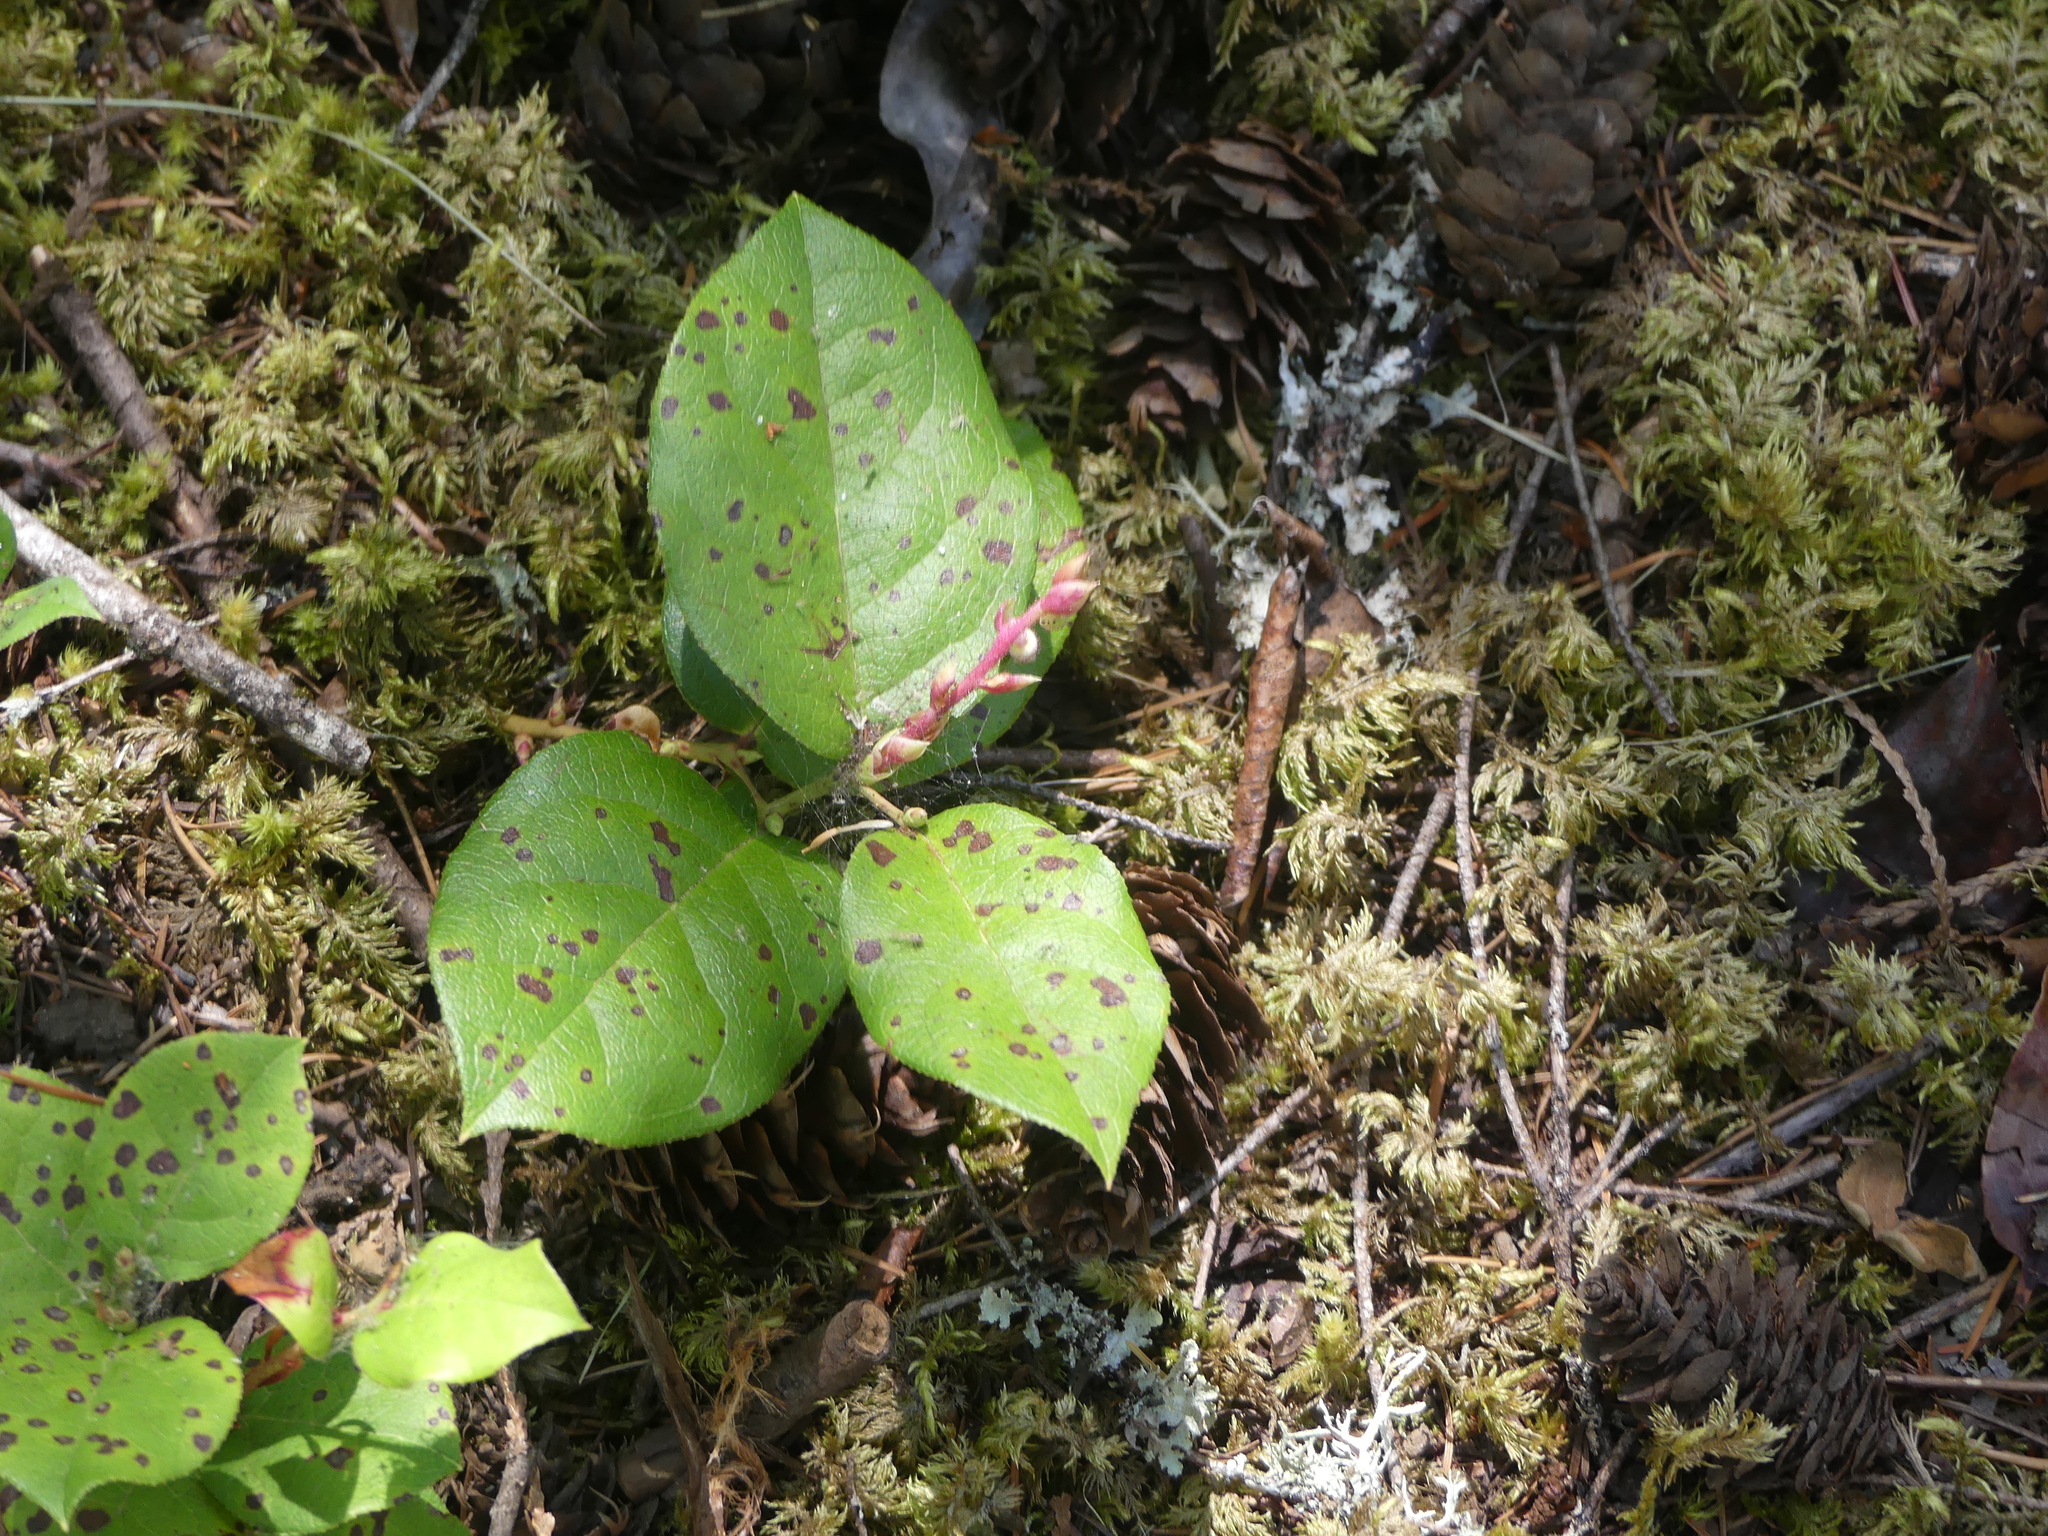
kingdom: Plantae
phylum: Tracheophyta
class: Magnoliopsida
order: Ericales
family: Ericaceae
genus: Gaultheria
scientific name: Gaultheria shallon
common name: Shallon
